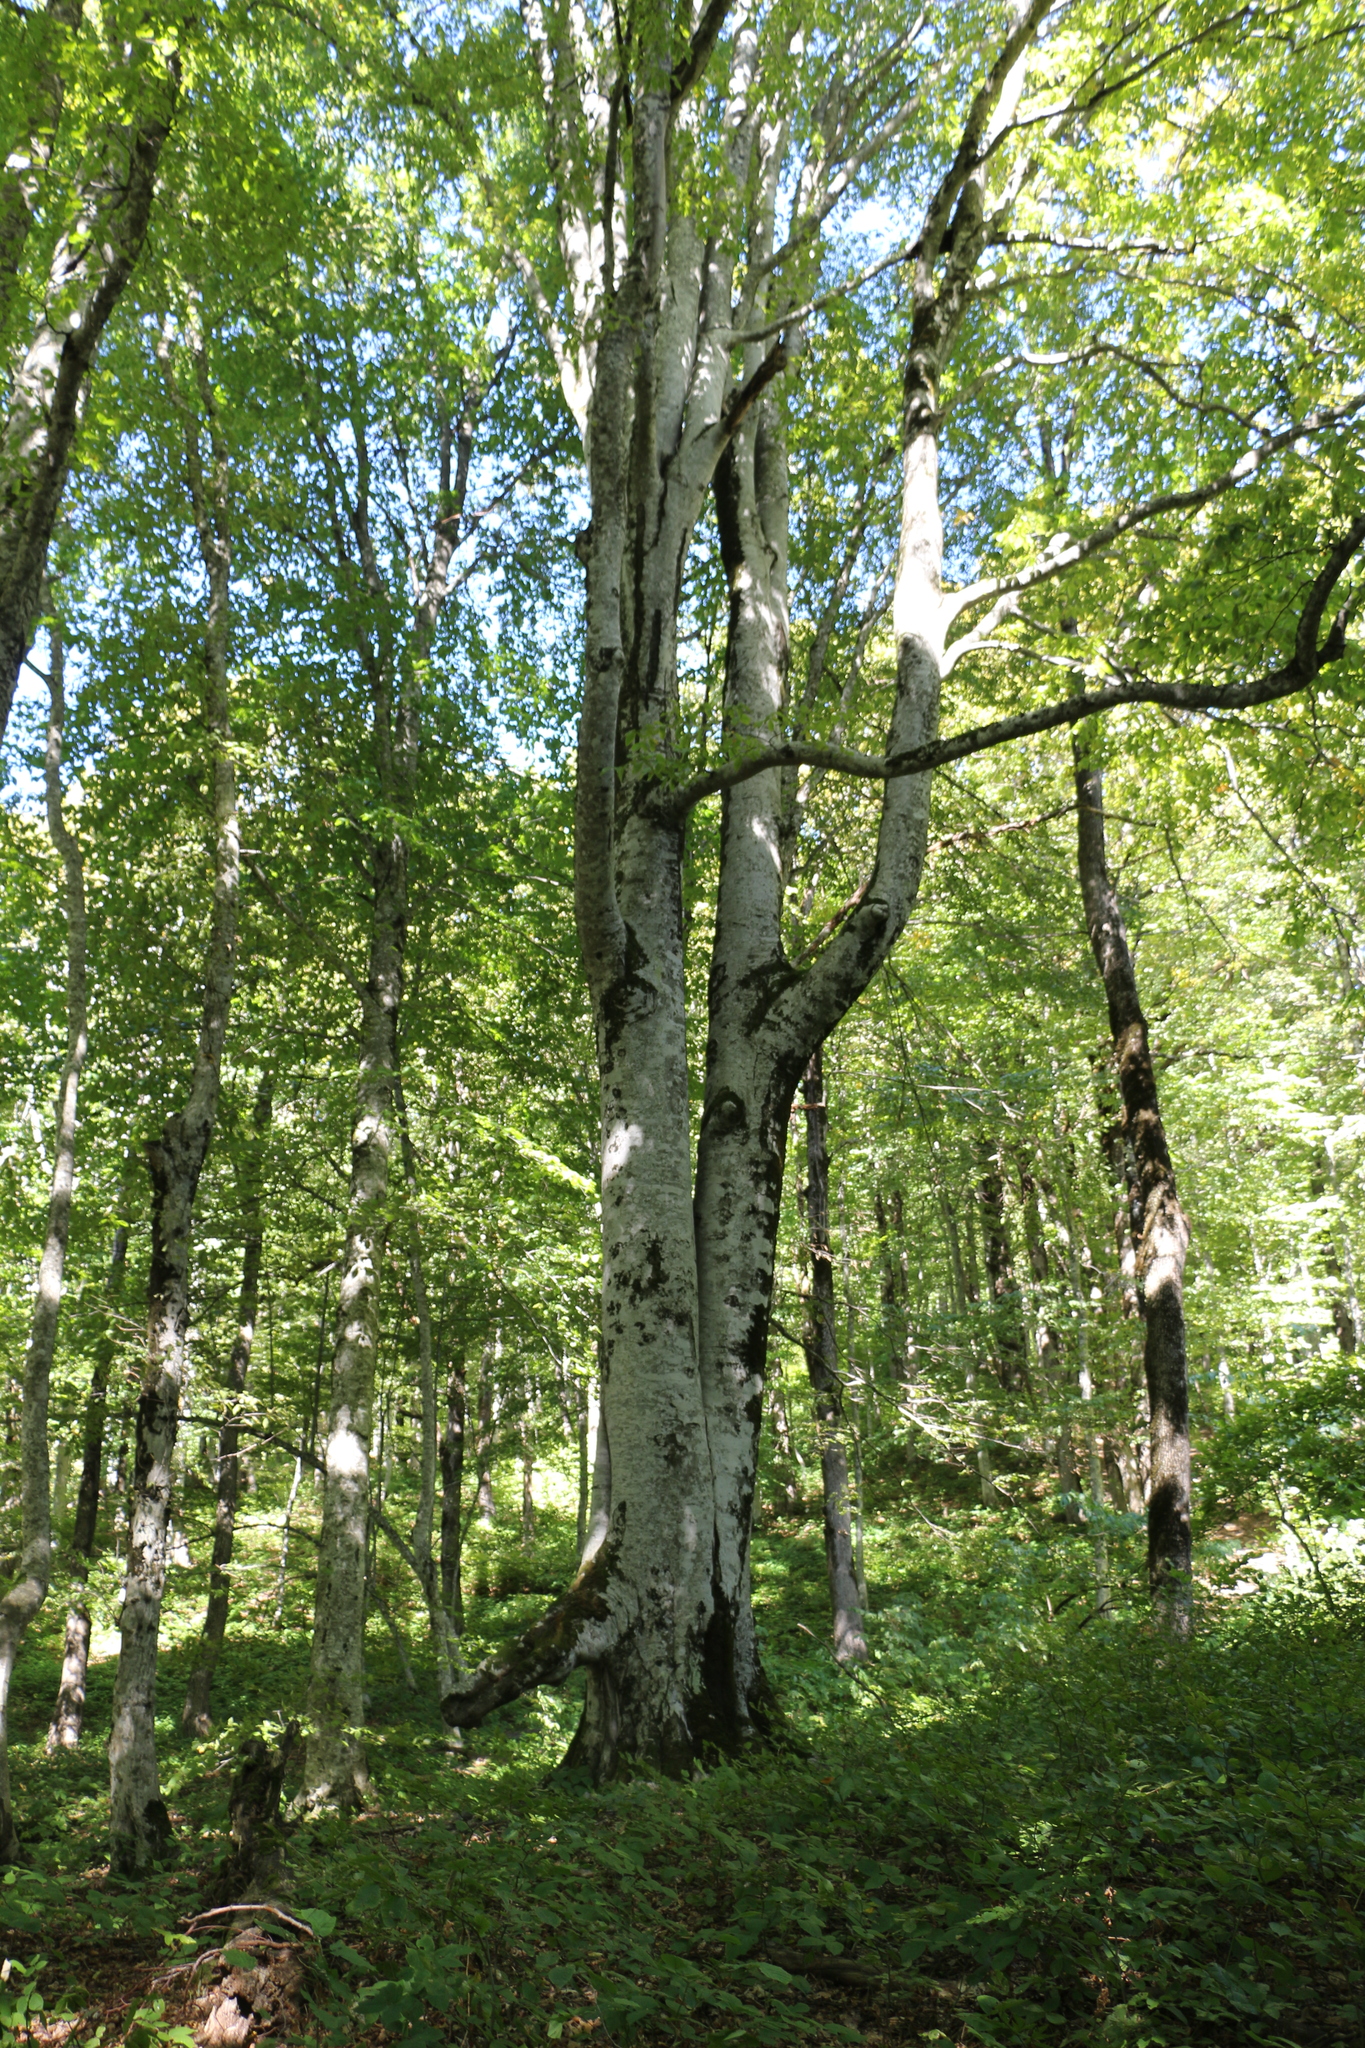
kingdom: Plantae
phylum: Tracheophyta
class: Magnoliopsida
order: Fagales
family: Fagaceae
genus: Fagus
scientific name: Fagus orientalis
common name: Oriental beech
